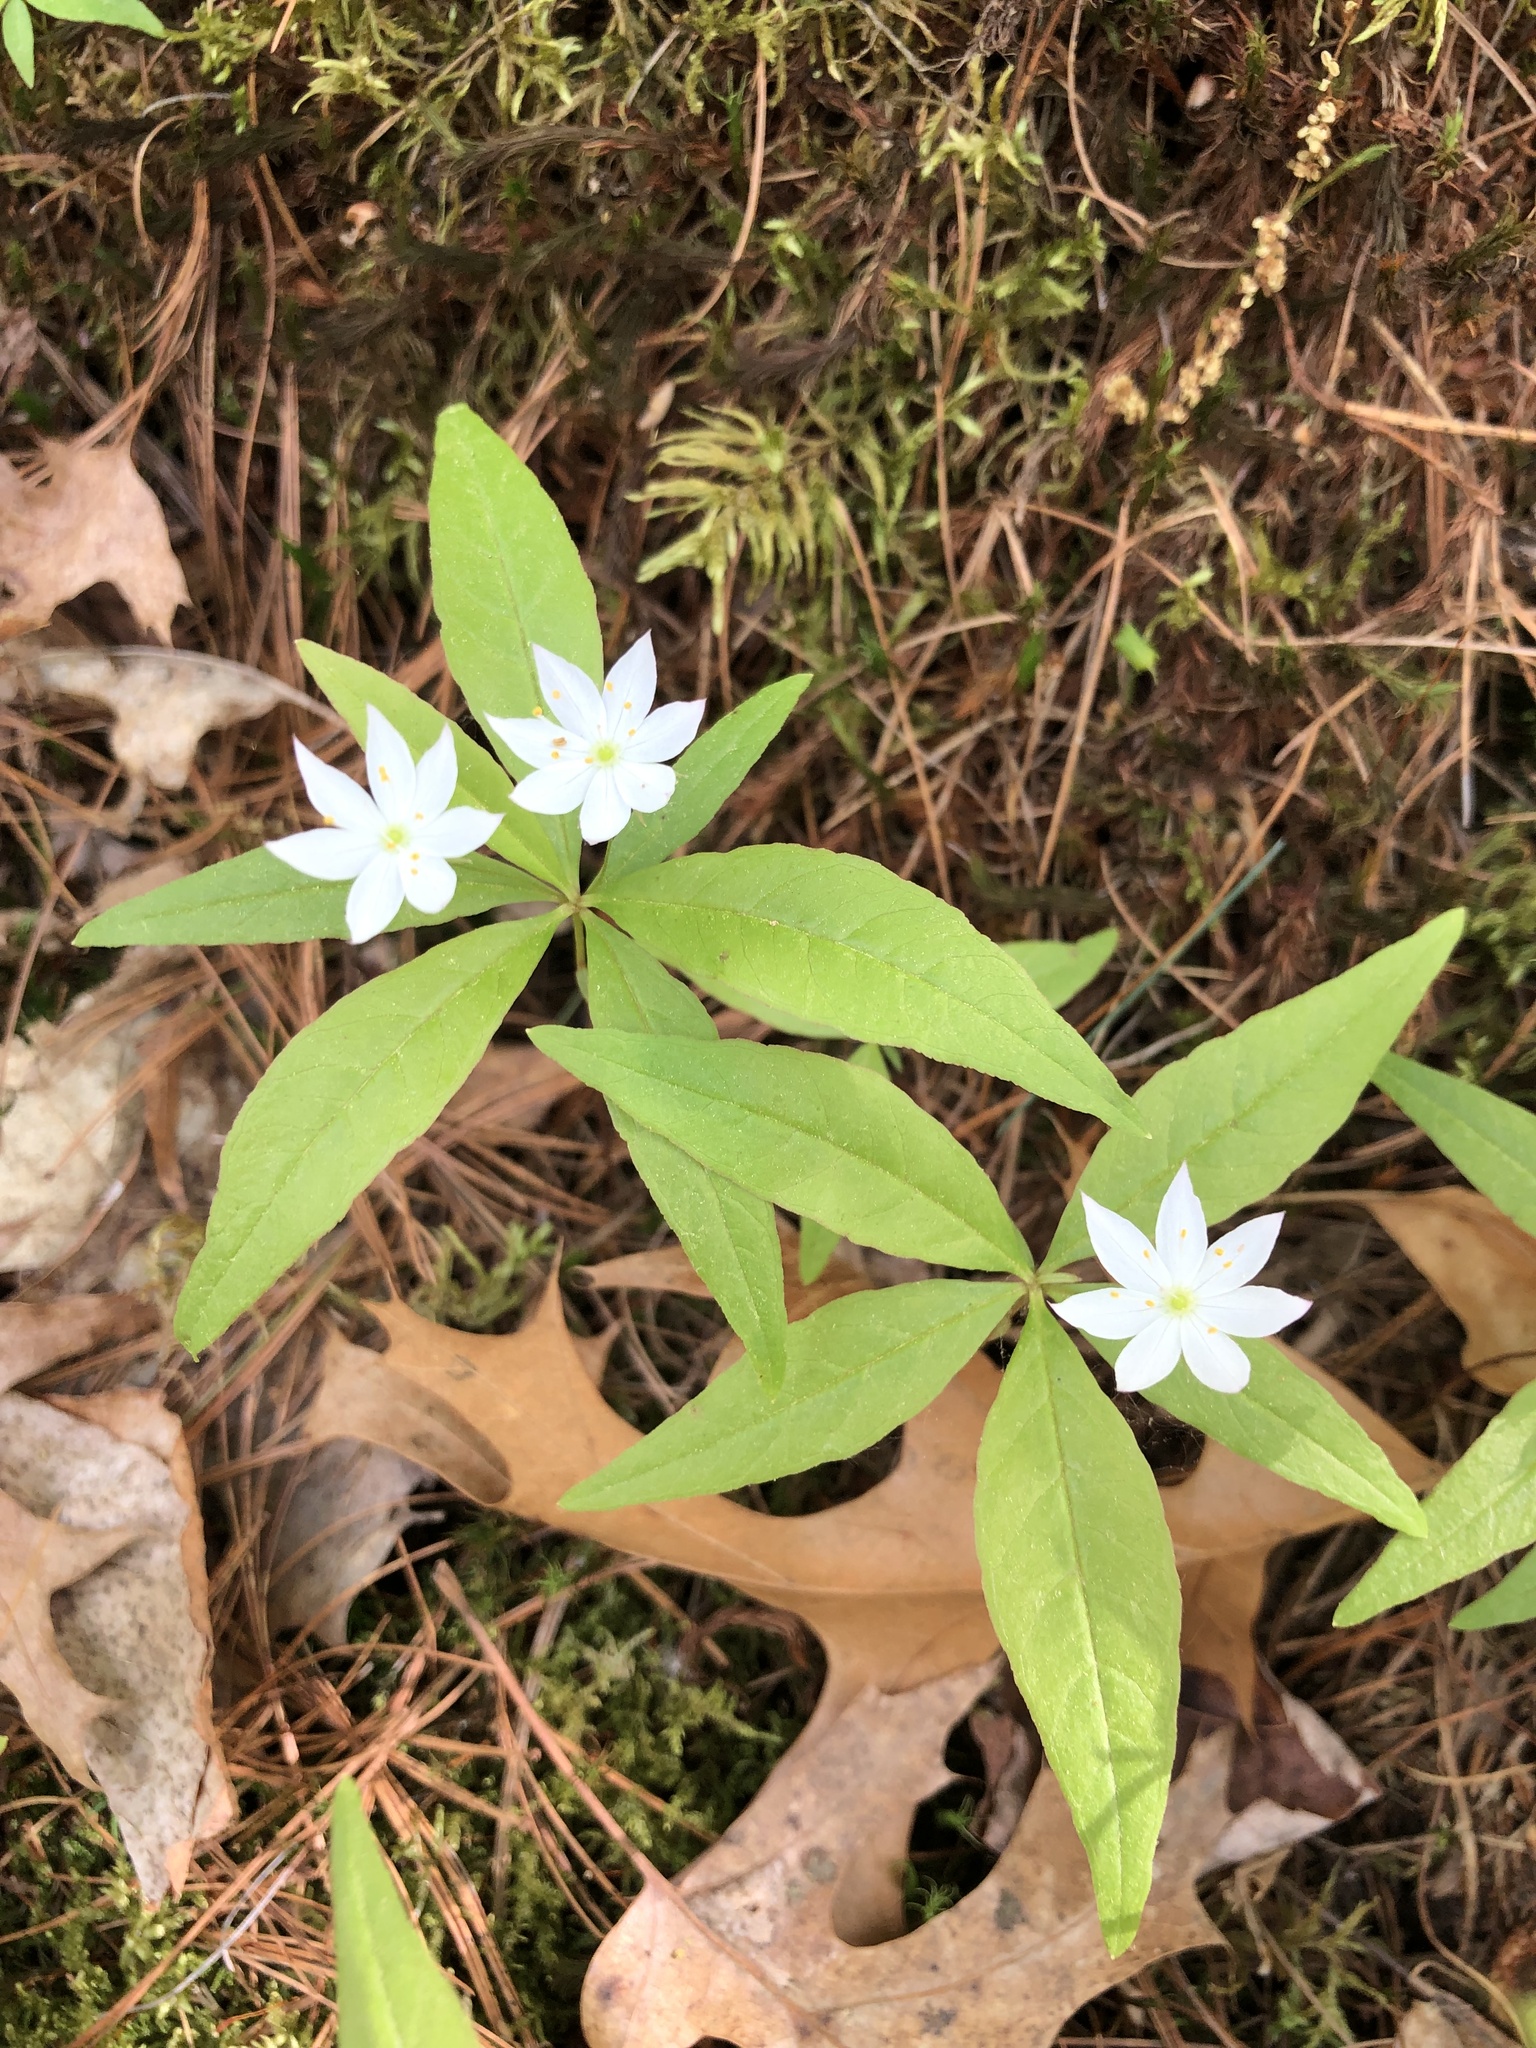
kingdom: Plantae
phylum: Tracheophyta
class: Magnoliopsida
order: Ericales
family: Primulaceae
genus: Lysimachia
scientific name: Lysimachia borealis
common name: American starflower
